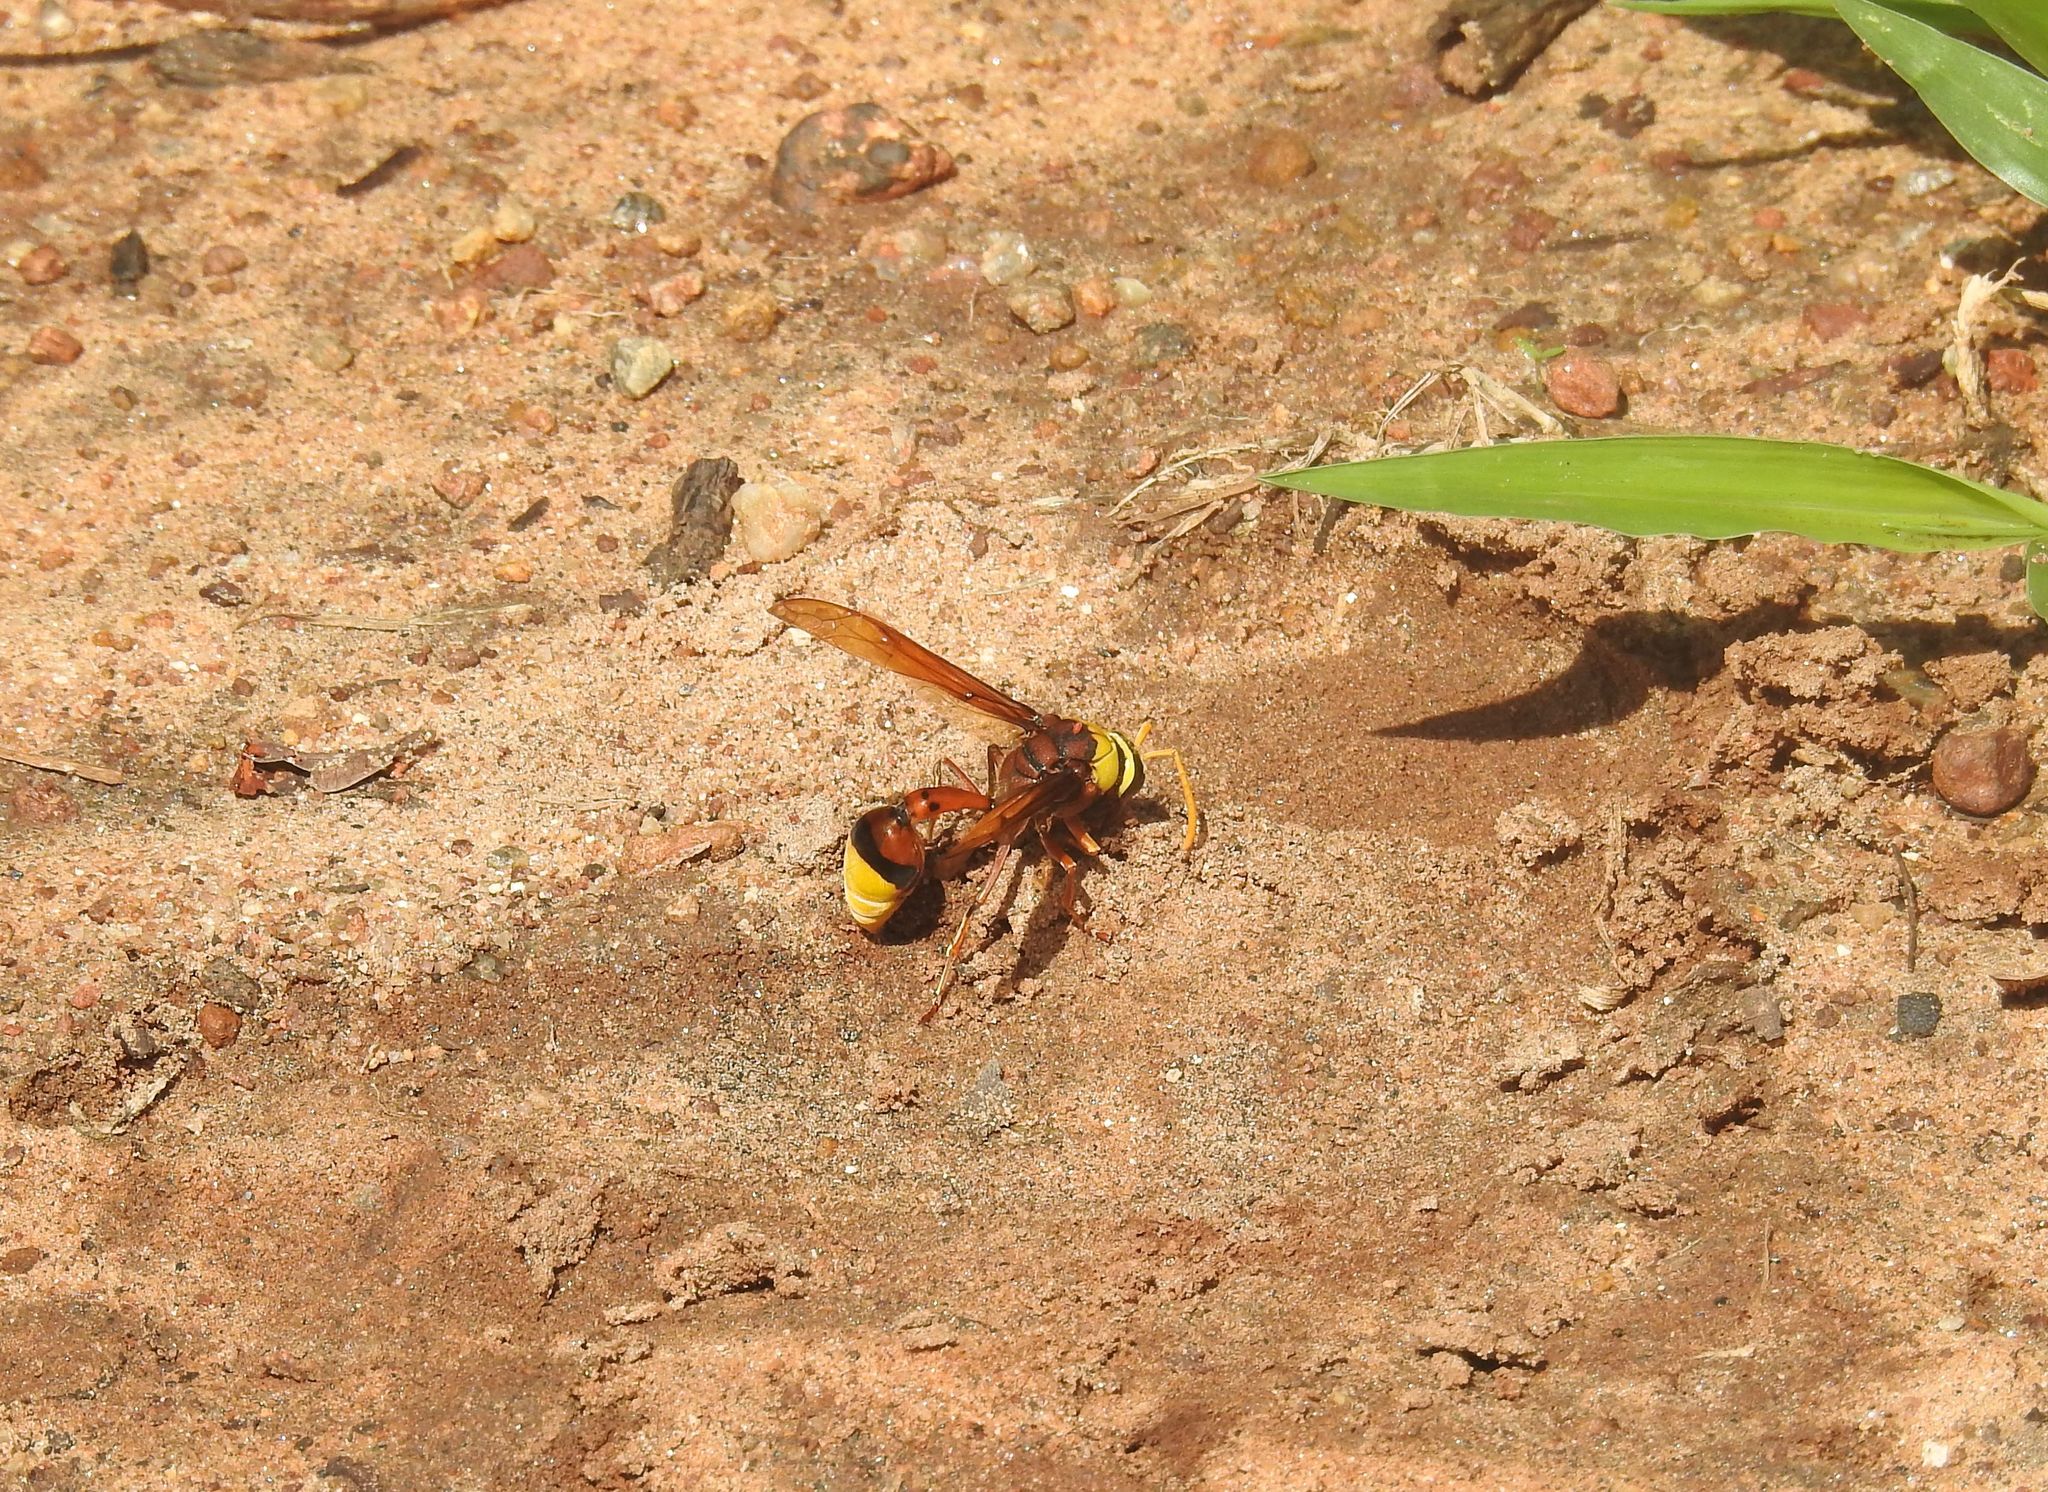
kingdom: Animalia
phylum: Arthropoda
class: Insecta
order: Hymenoptera
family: Eumenidae
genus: Delta
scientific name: Delta pyriforme
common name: Wasp
